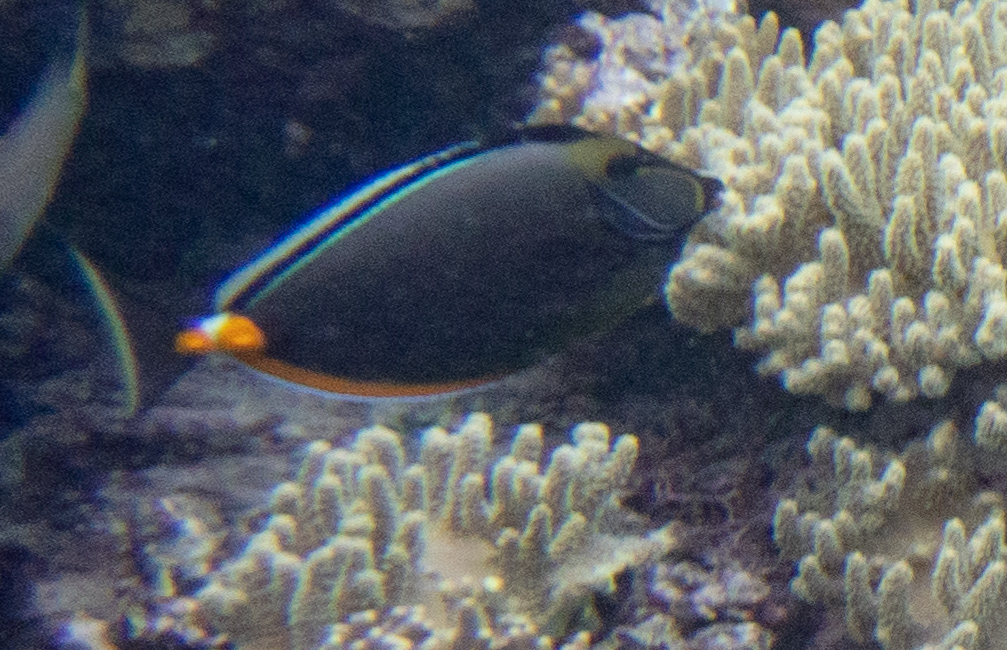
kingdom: Animalia
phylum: Chordata
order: Perciformes
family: Acanthuridae
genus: Naso
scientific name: Naso lituratus
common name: Orangespine unicornfish
